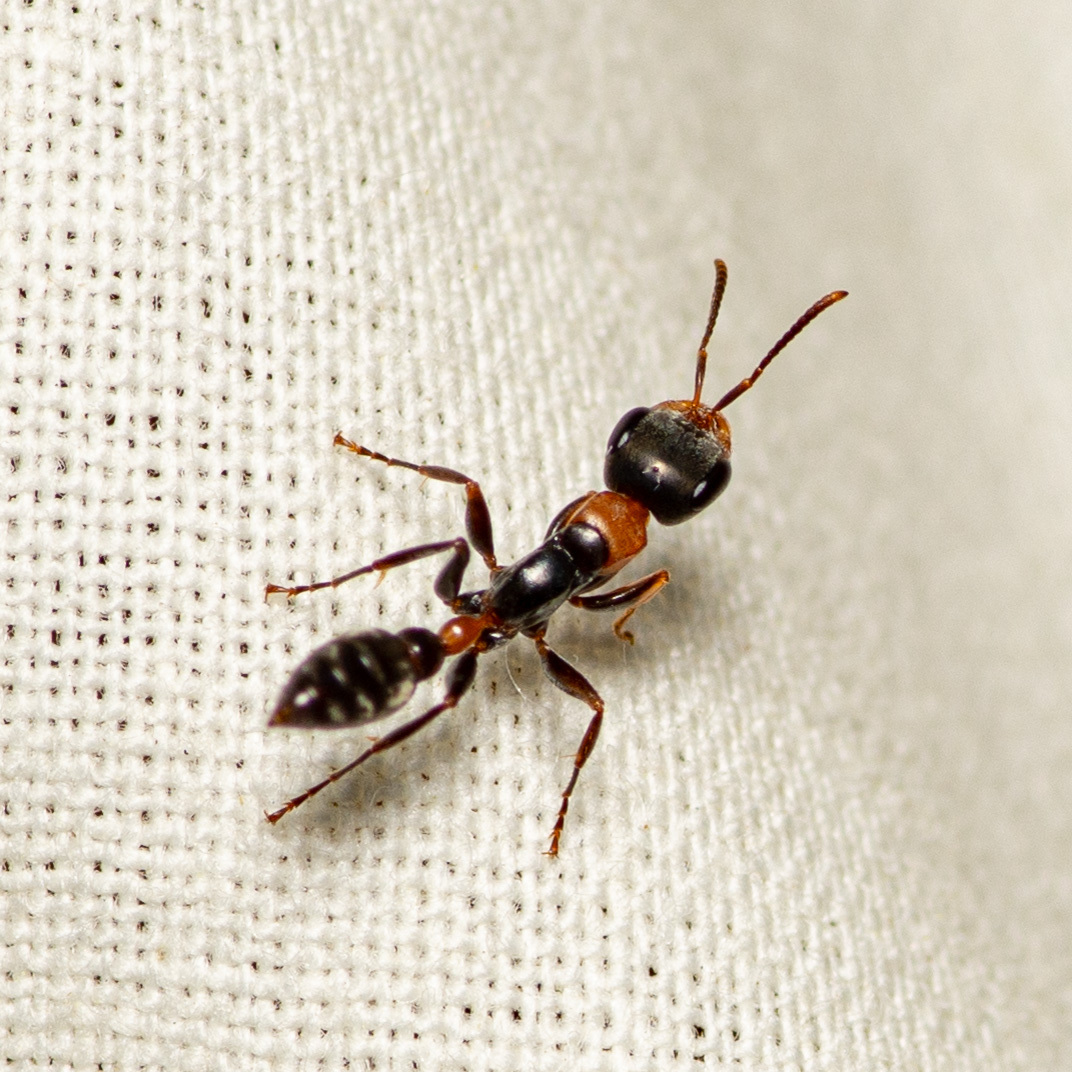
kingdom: Animalia
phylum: Arthropoda
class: Insecta
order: Hymenoptera
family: Formicidae
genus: Pseudomyrmex
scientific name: Pseudomyrmex gracilis
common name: Graceful twig ant
